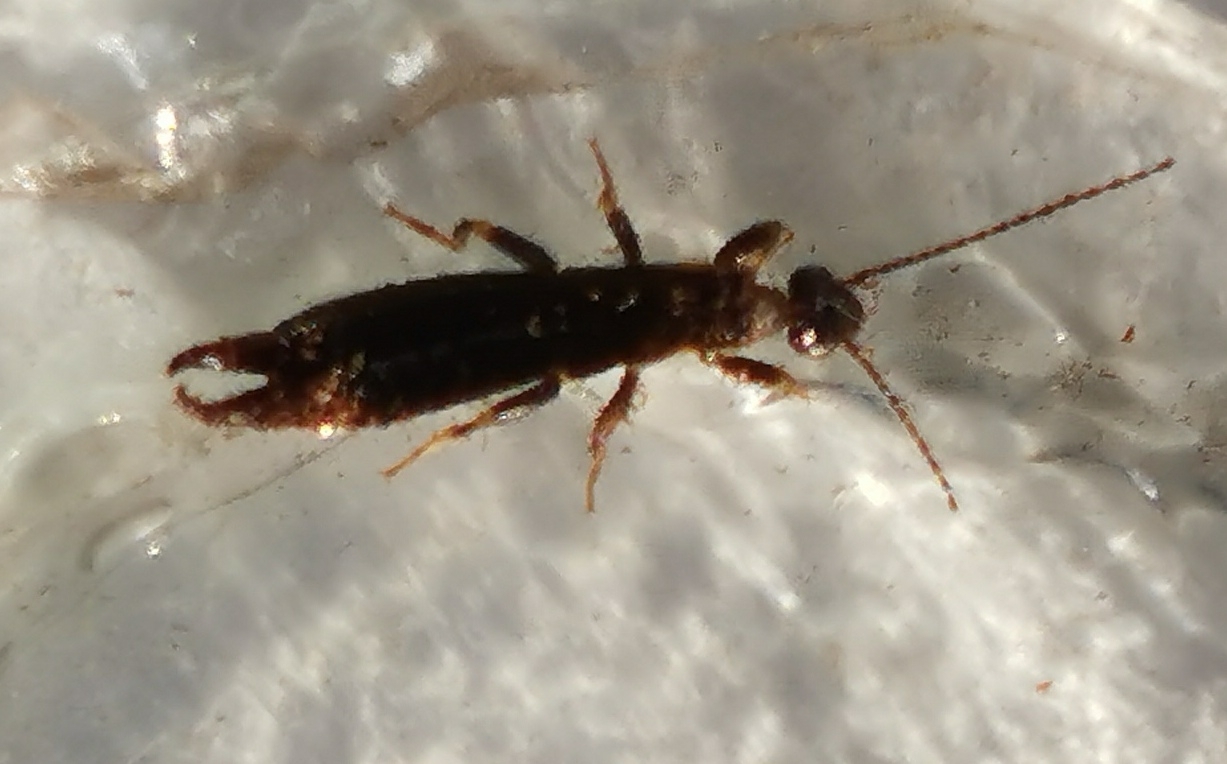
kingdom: Animalia
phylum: Arthropoda
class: Insecta
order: Dermaptera
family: Anisolabididae
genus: Euborellia
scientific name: Euborellia moesta
